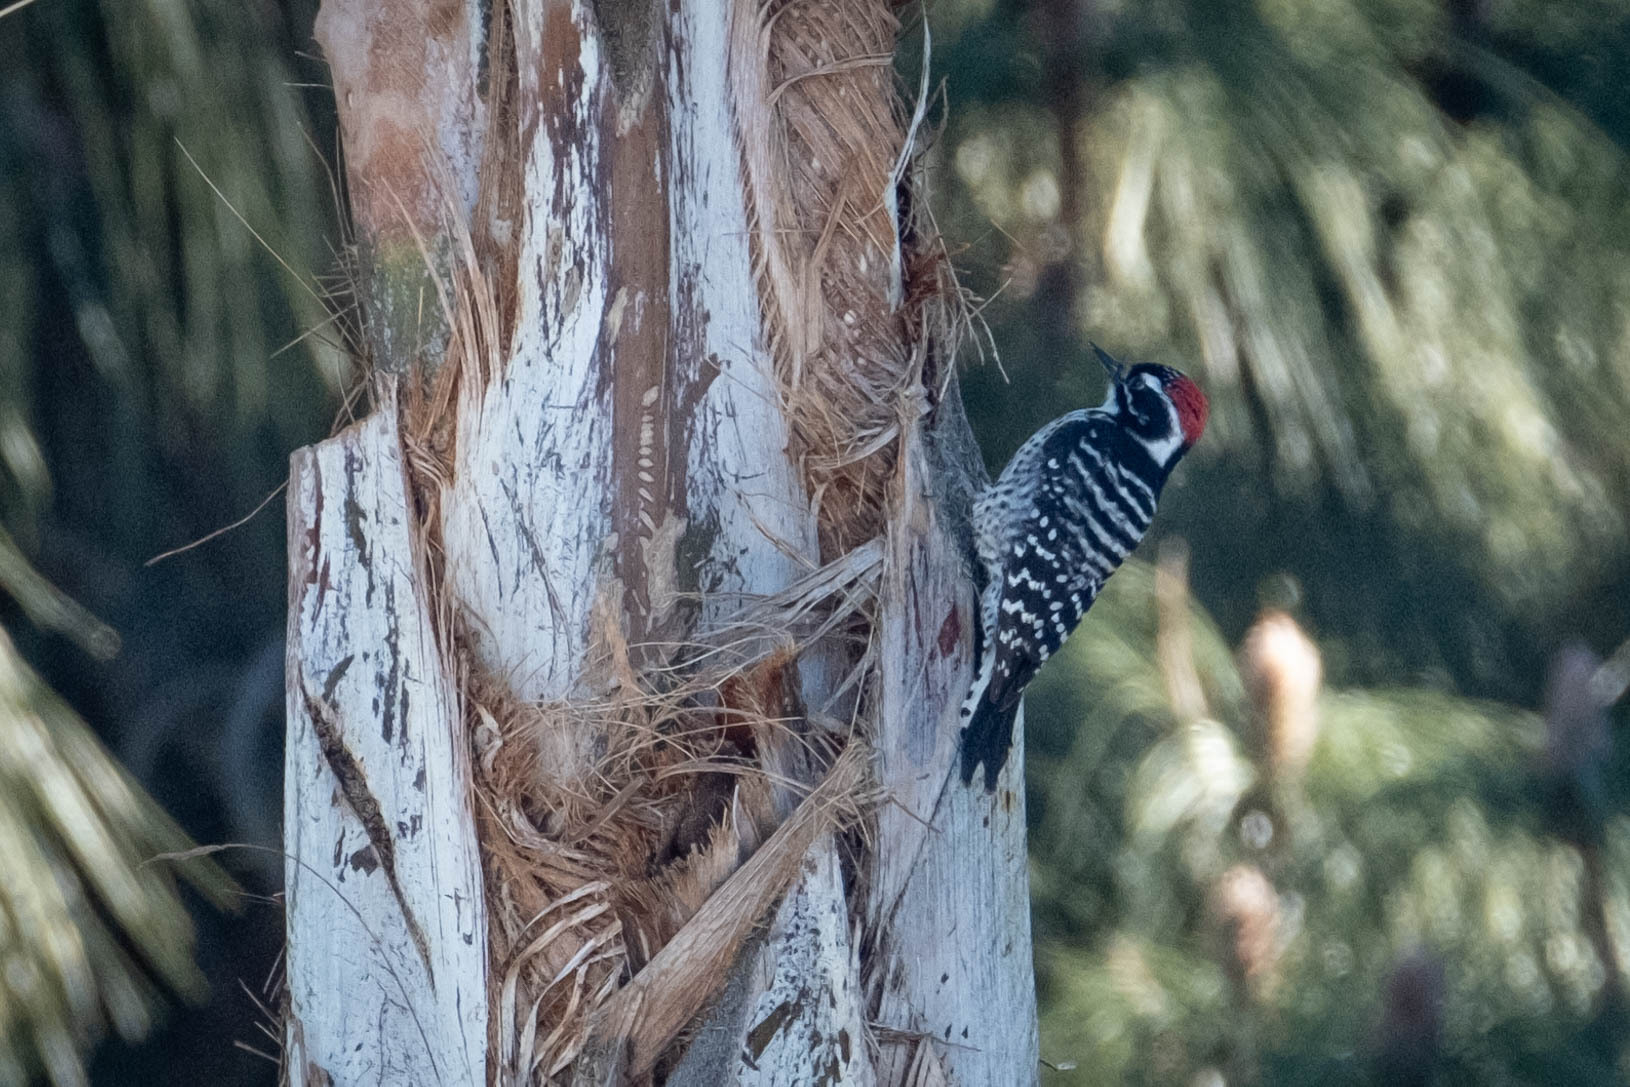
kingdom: Animalia
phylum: Chordata
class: Aves
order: Piciformes
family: Picidae
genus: Dryobates
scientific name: Dryobates nuttallii
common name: Nuttall's woodpecker
